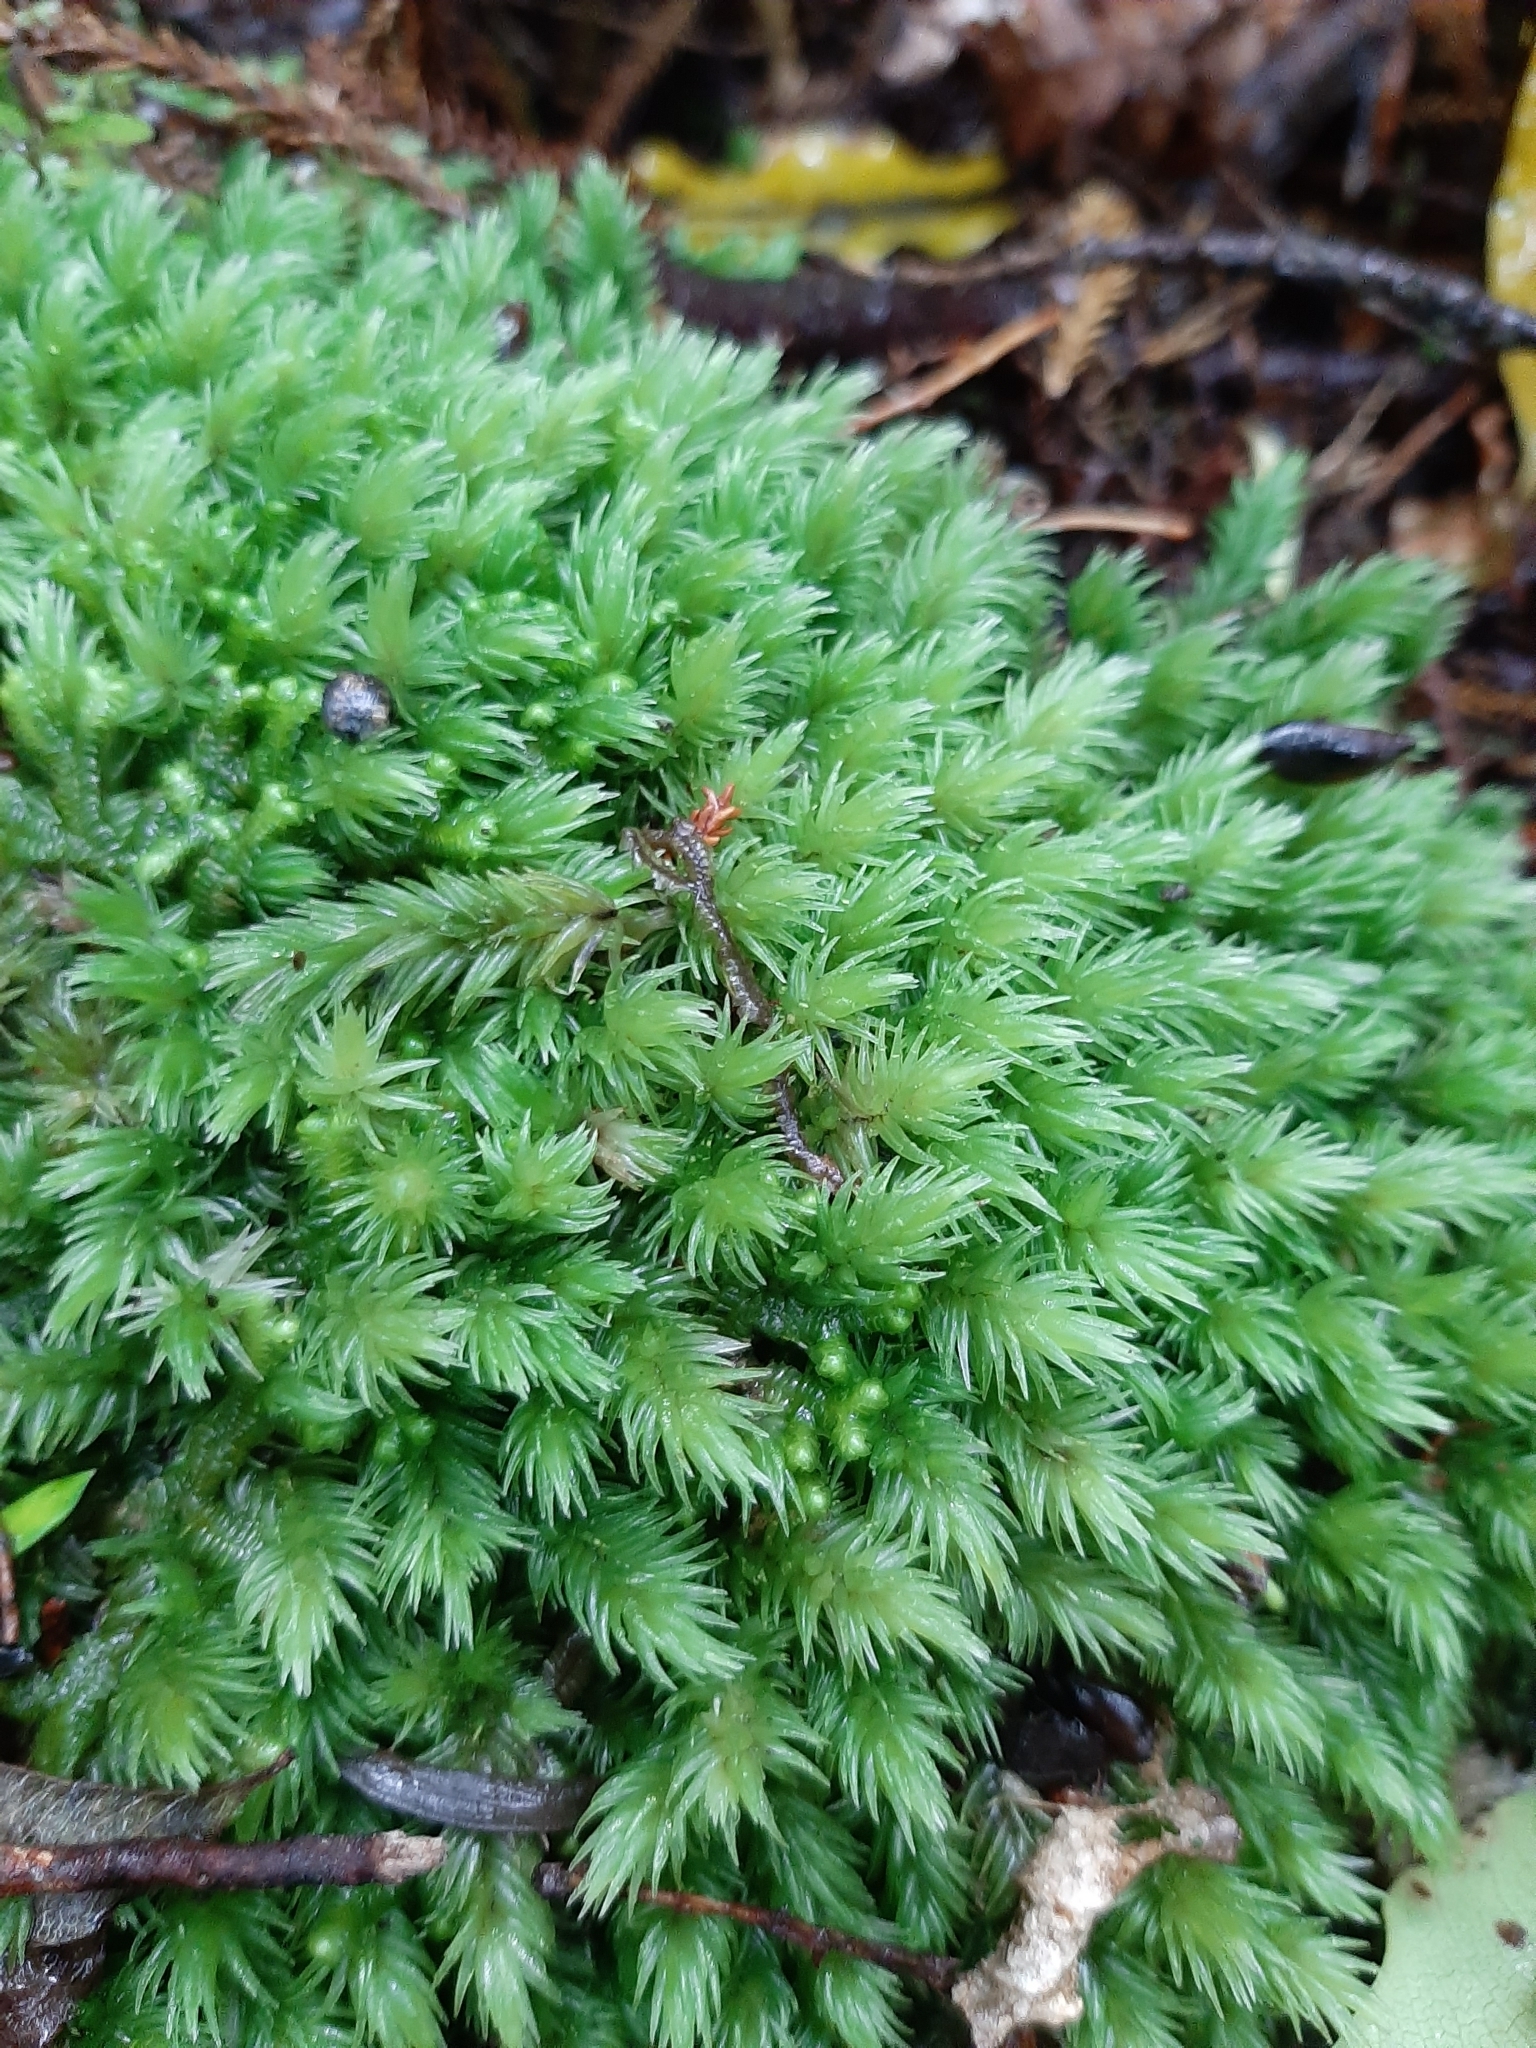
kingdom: Plantae
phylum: Bryophyta
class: Bryopsida
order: Dicranales
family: Leucobryaceae
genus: Leucobryum
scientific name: Leucobryum javense
